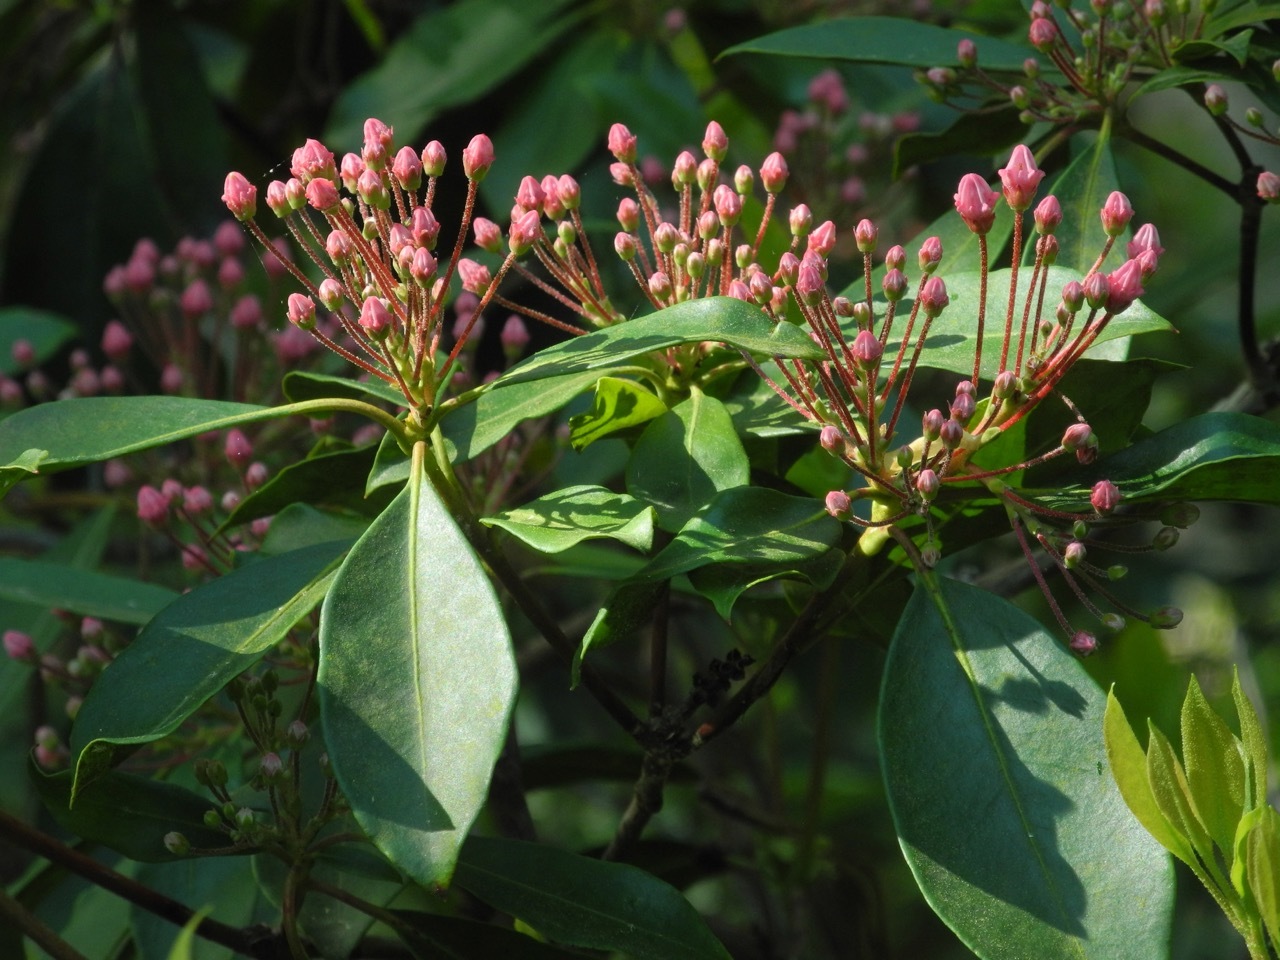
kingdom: Plantae
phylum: Tracheophyta
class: Magnoliopsida
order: Ericales
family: Ericaceae
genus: Kalmia
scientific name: Kalmia latifolia
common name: Mountain-laurel
